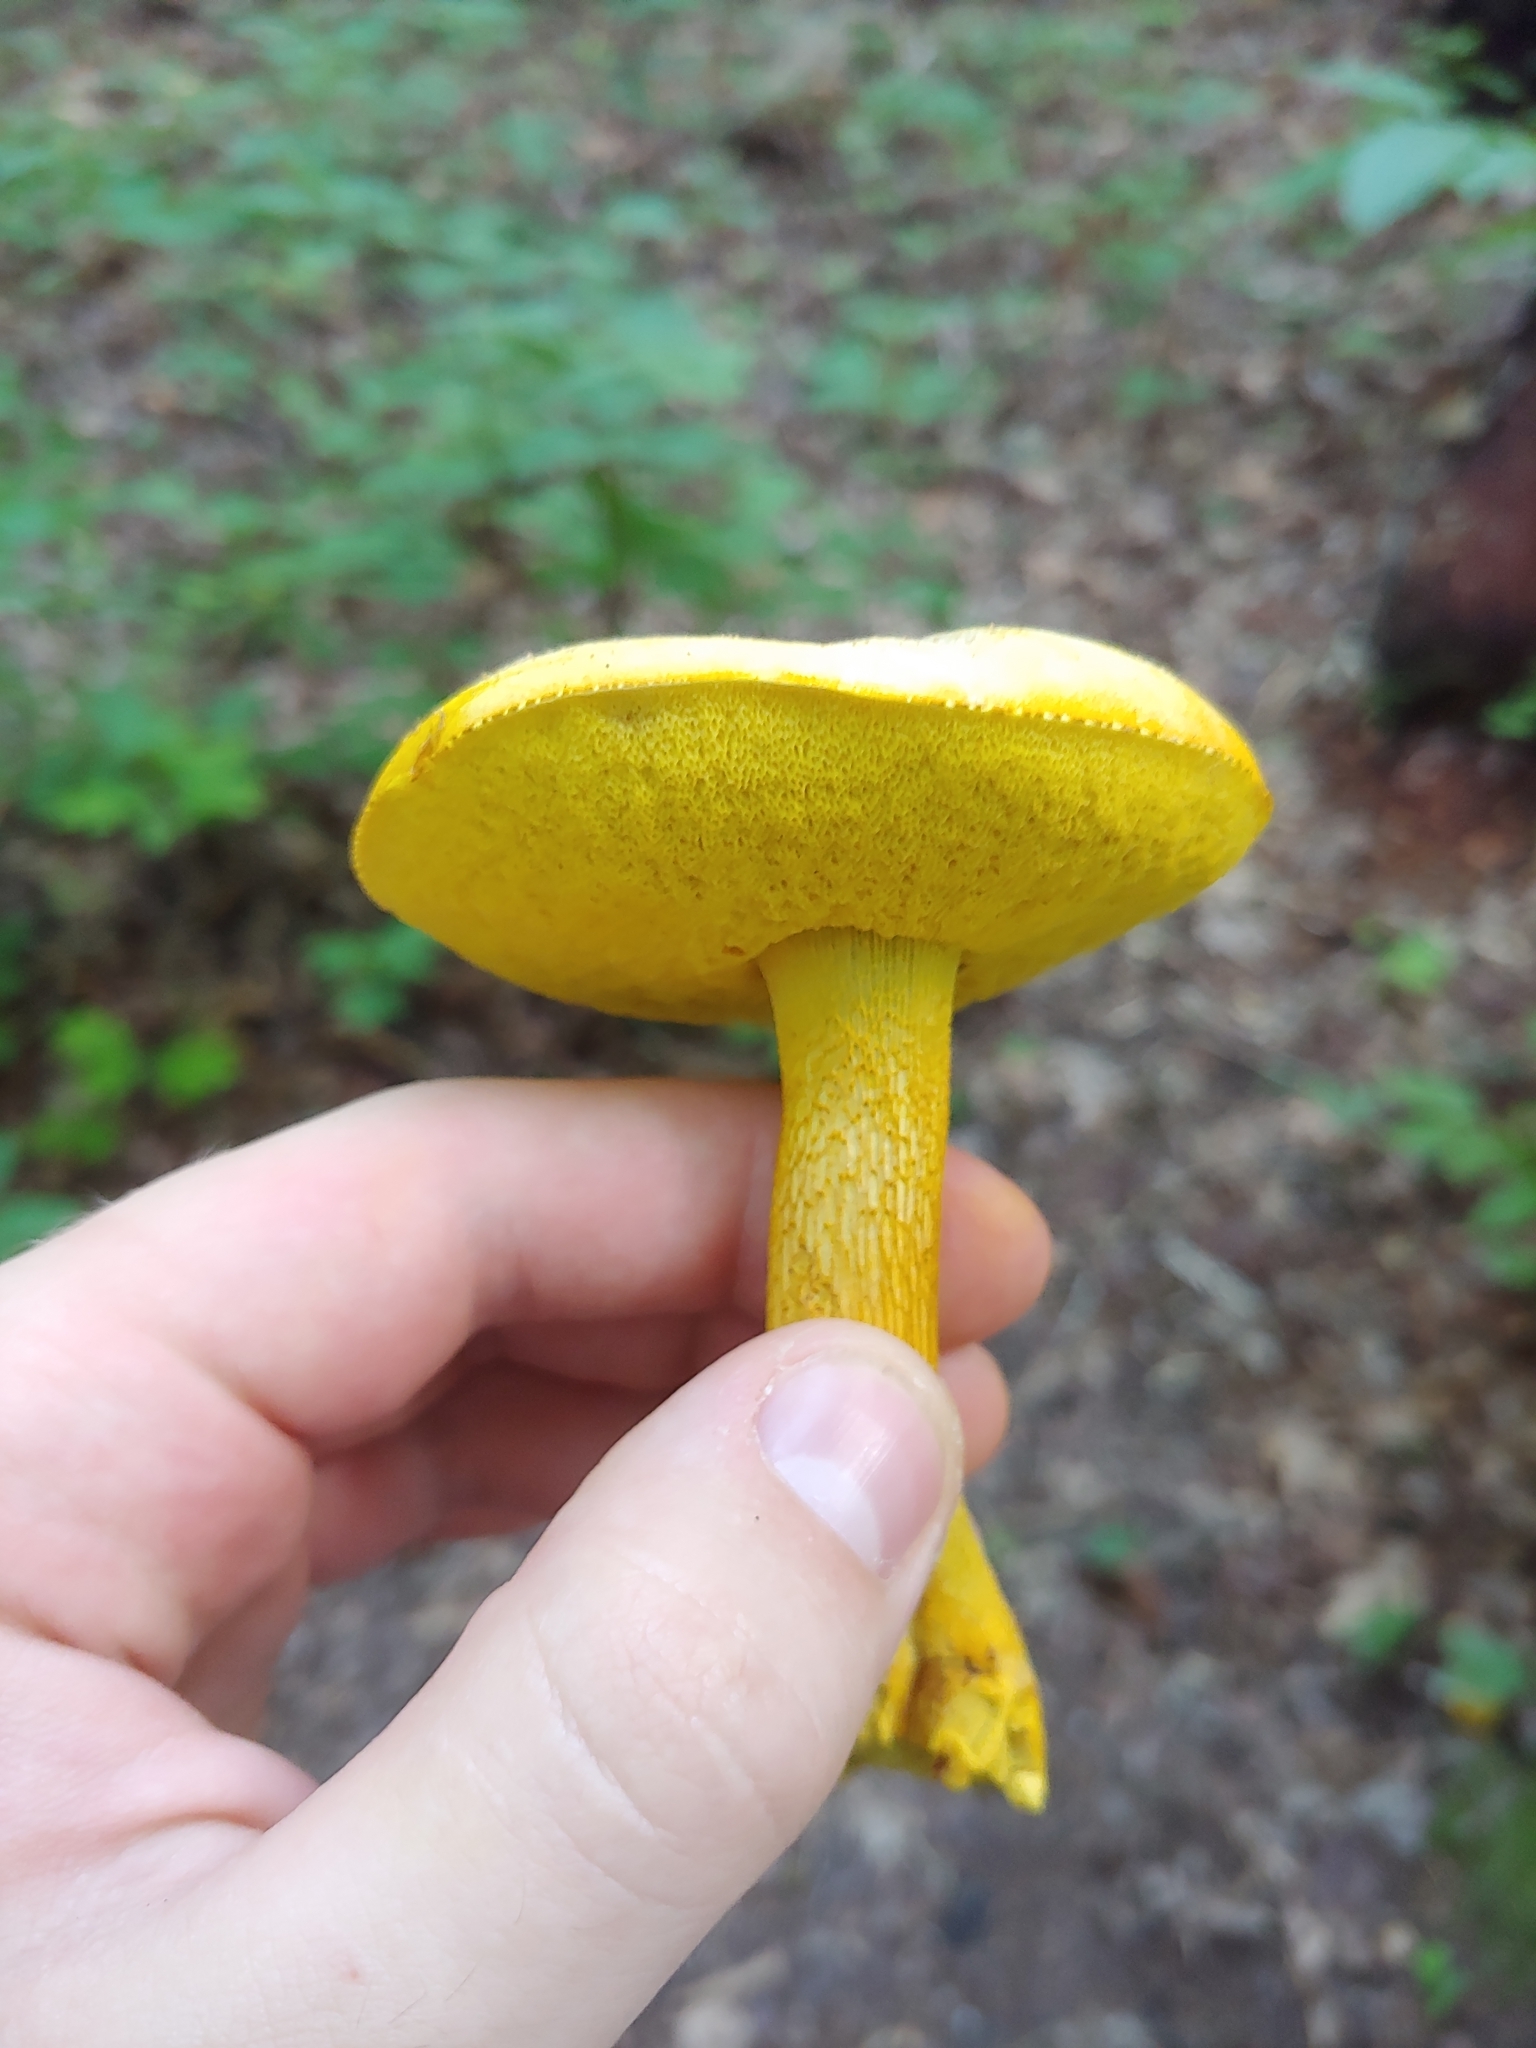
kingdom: Fungi
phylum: Basidiomycota
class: Agaricomycetes
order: Boletales
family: Boletaceae
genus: Retiboletus
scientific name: Retiboletus ornatipes
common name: Ornate-stalked bolete
